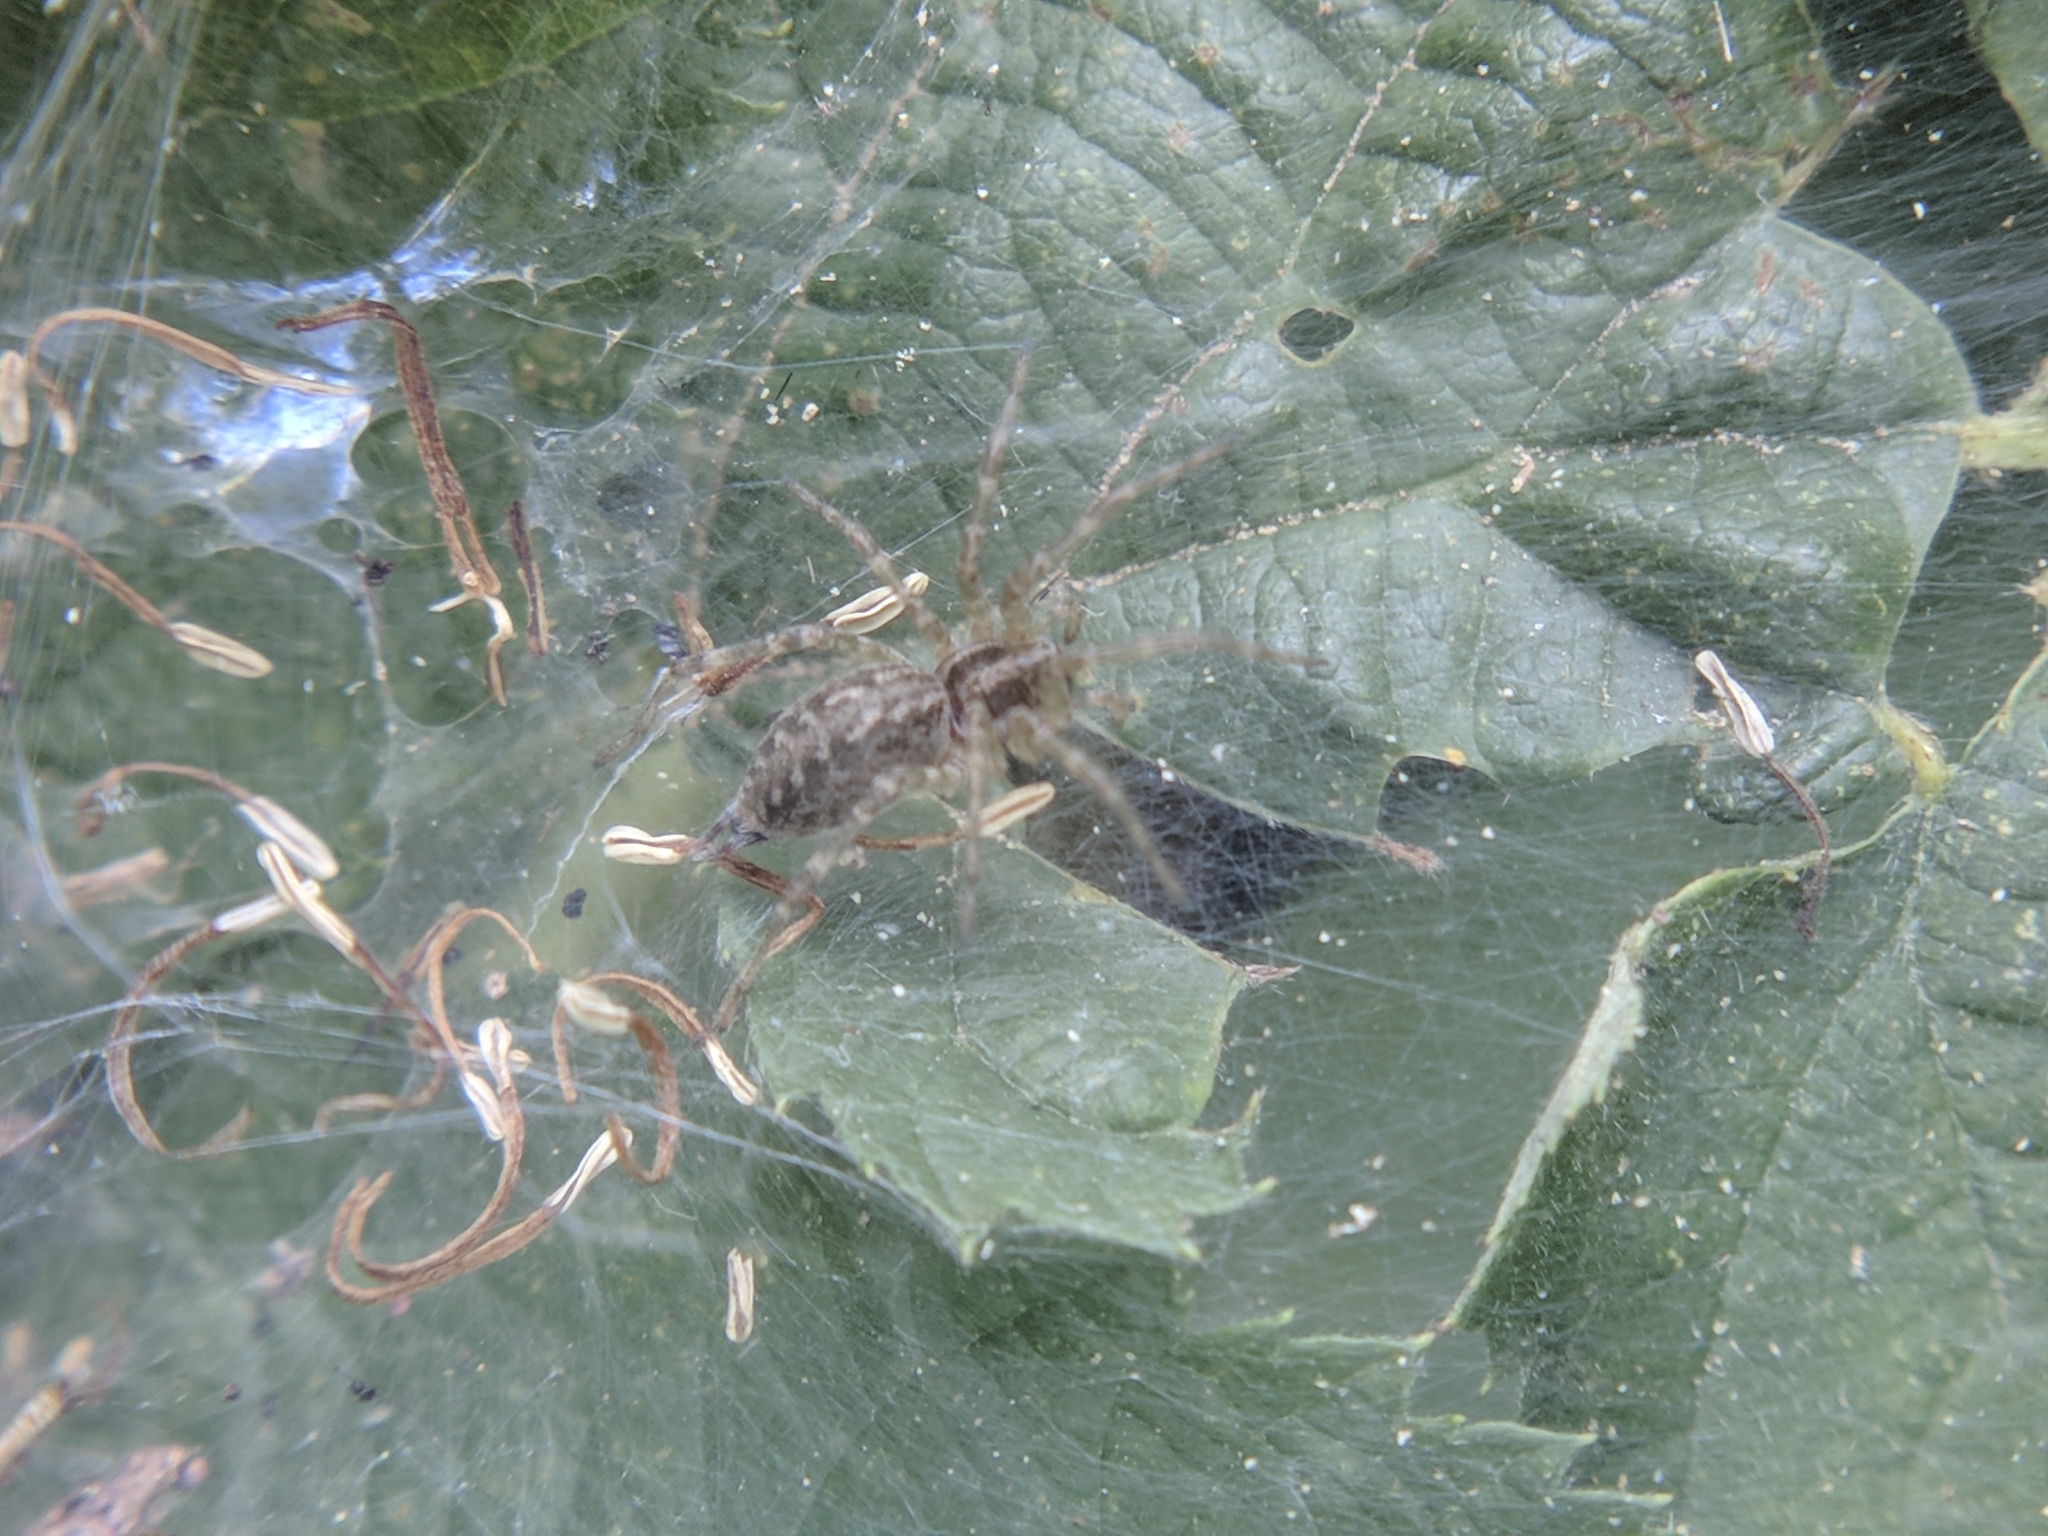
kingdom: Animalia
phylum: Arthropoda
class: Arachnida
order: Araneae
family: Agelenidae
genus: Agelena
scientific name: Agelena labyrinthica
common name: Labyrinth spider
